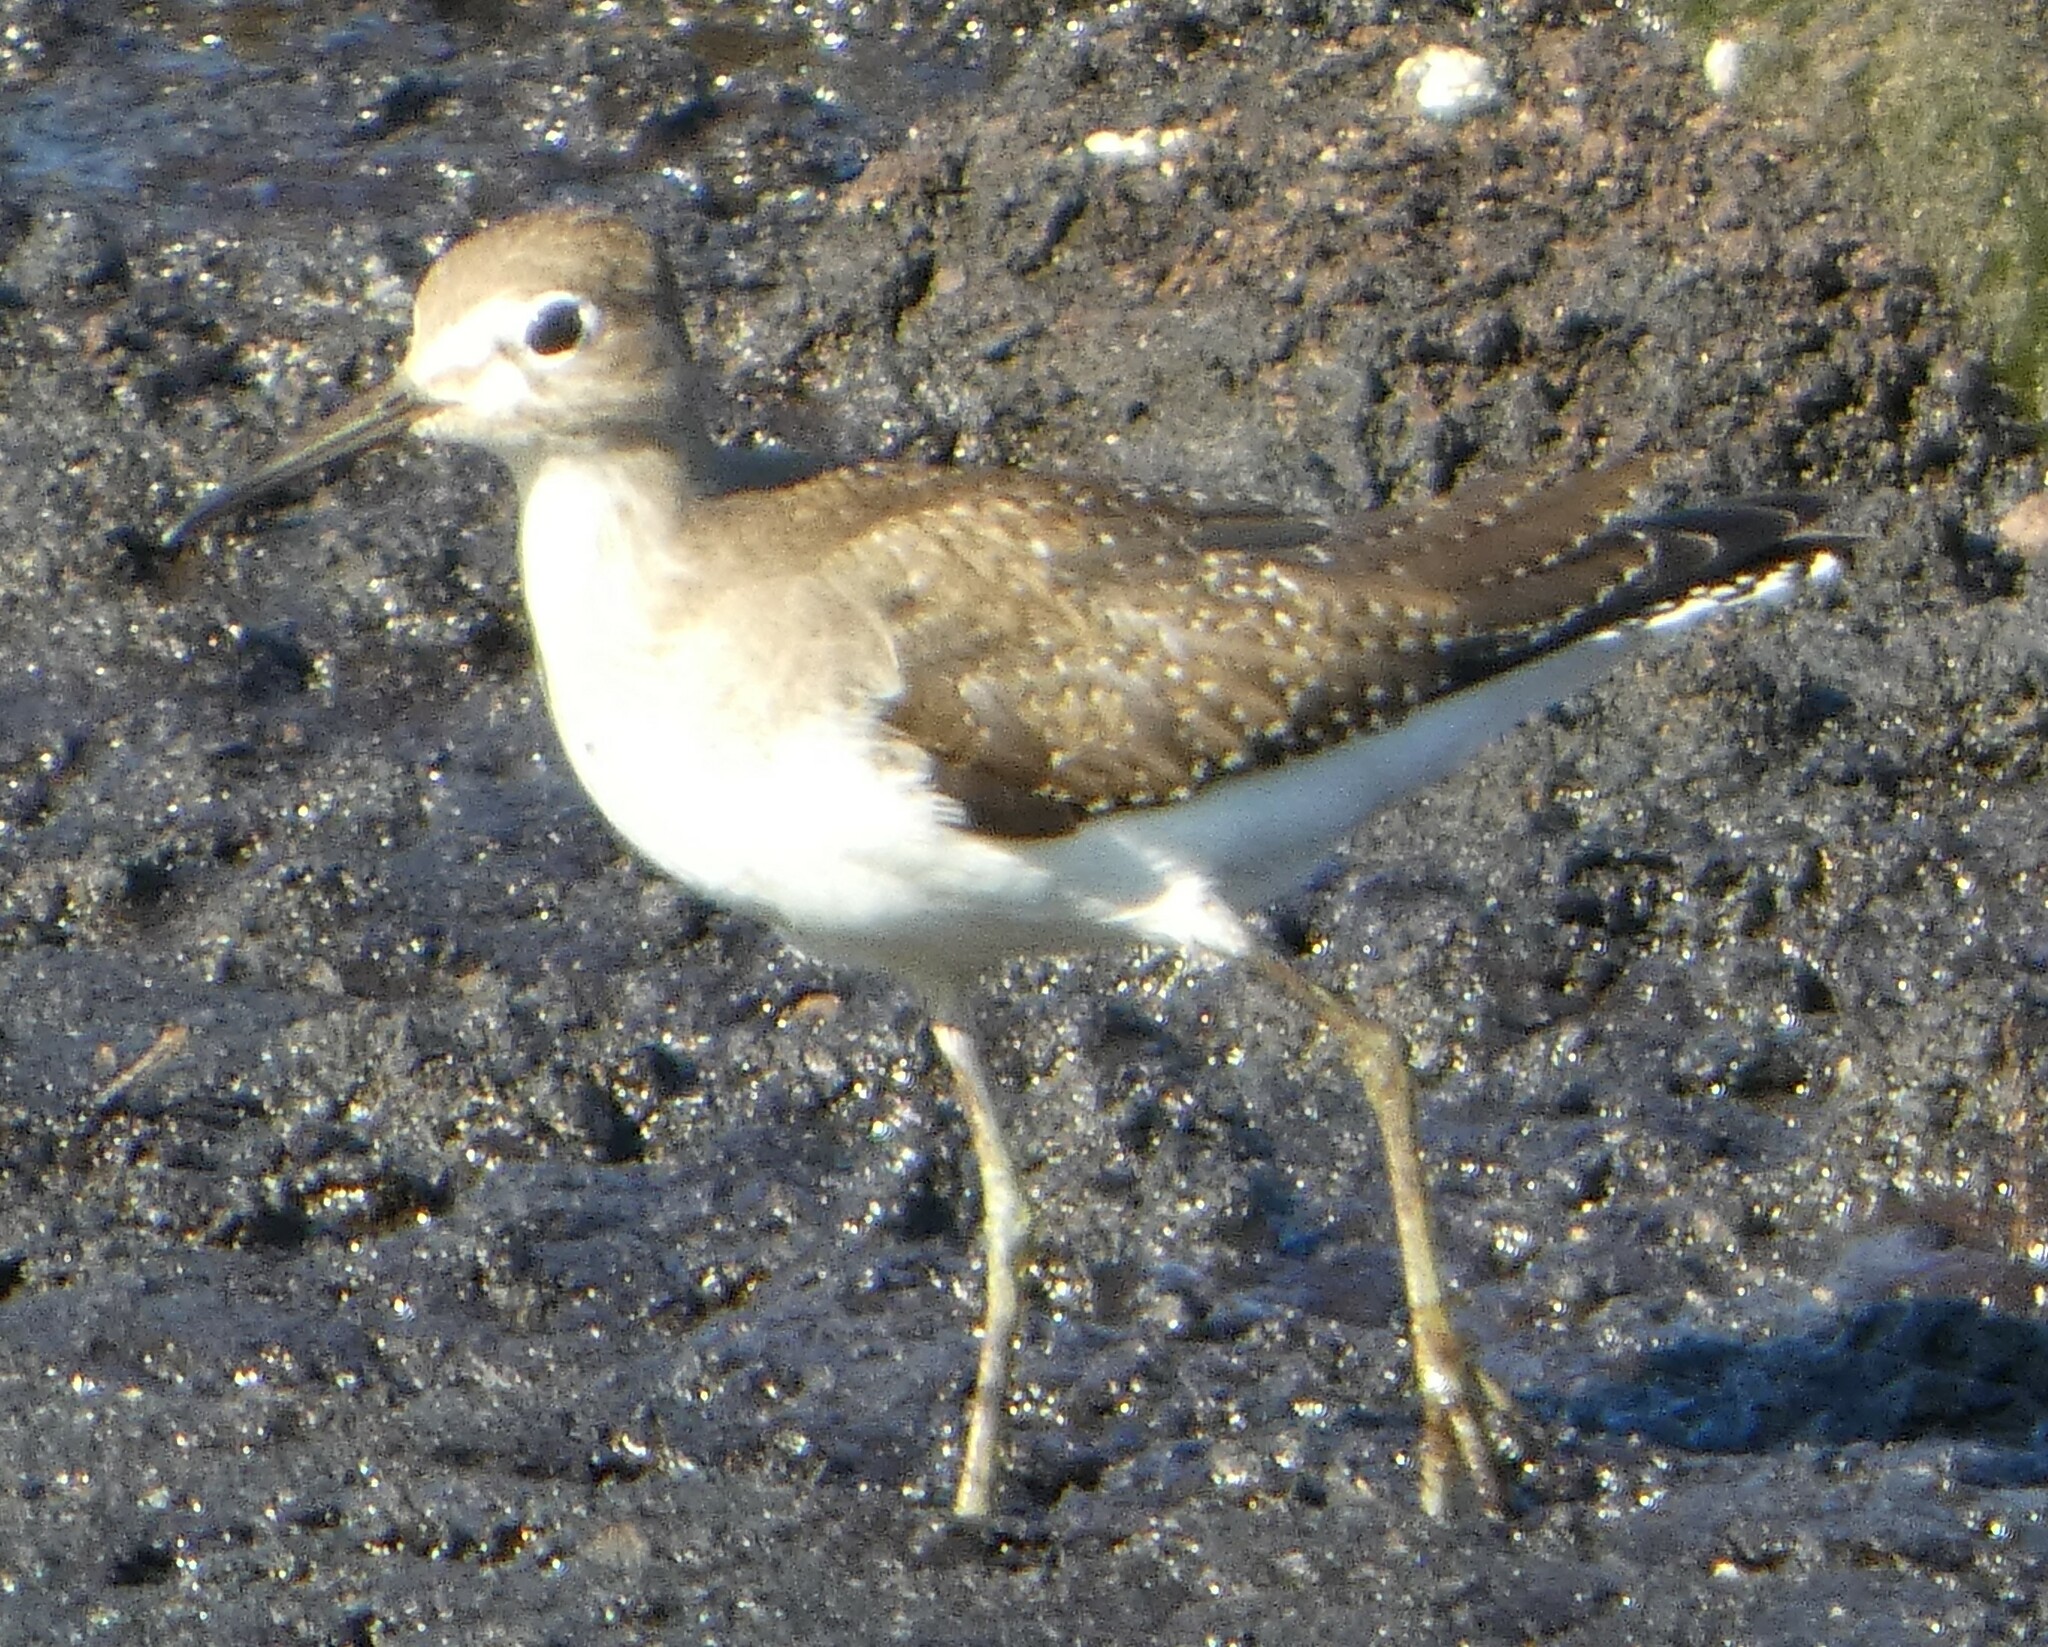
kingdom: Animalia
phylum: Chordata
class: Aves
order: Charadriiformes
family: Scolopacidae
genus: Tringa
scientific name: Tringa solitaria
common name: Solitary sandpiper
